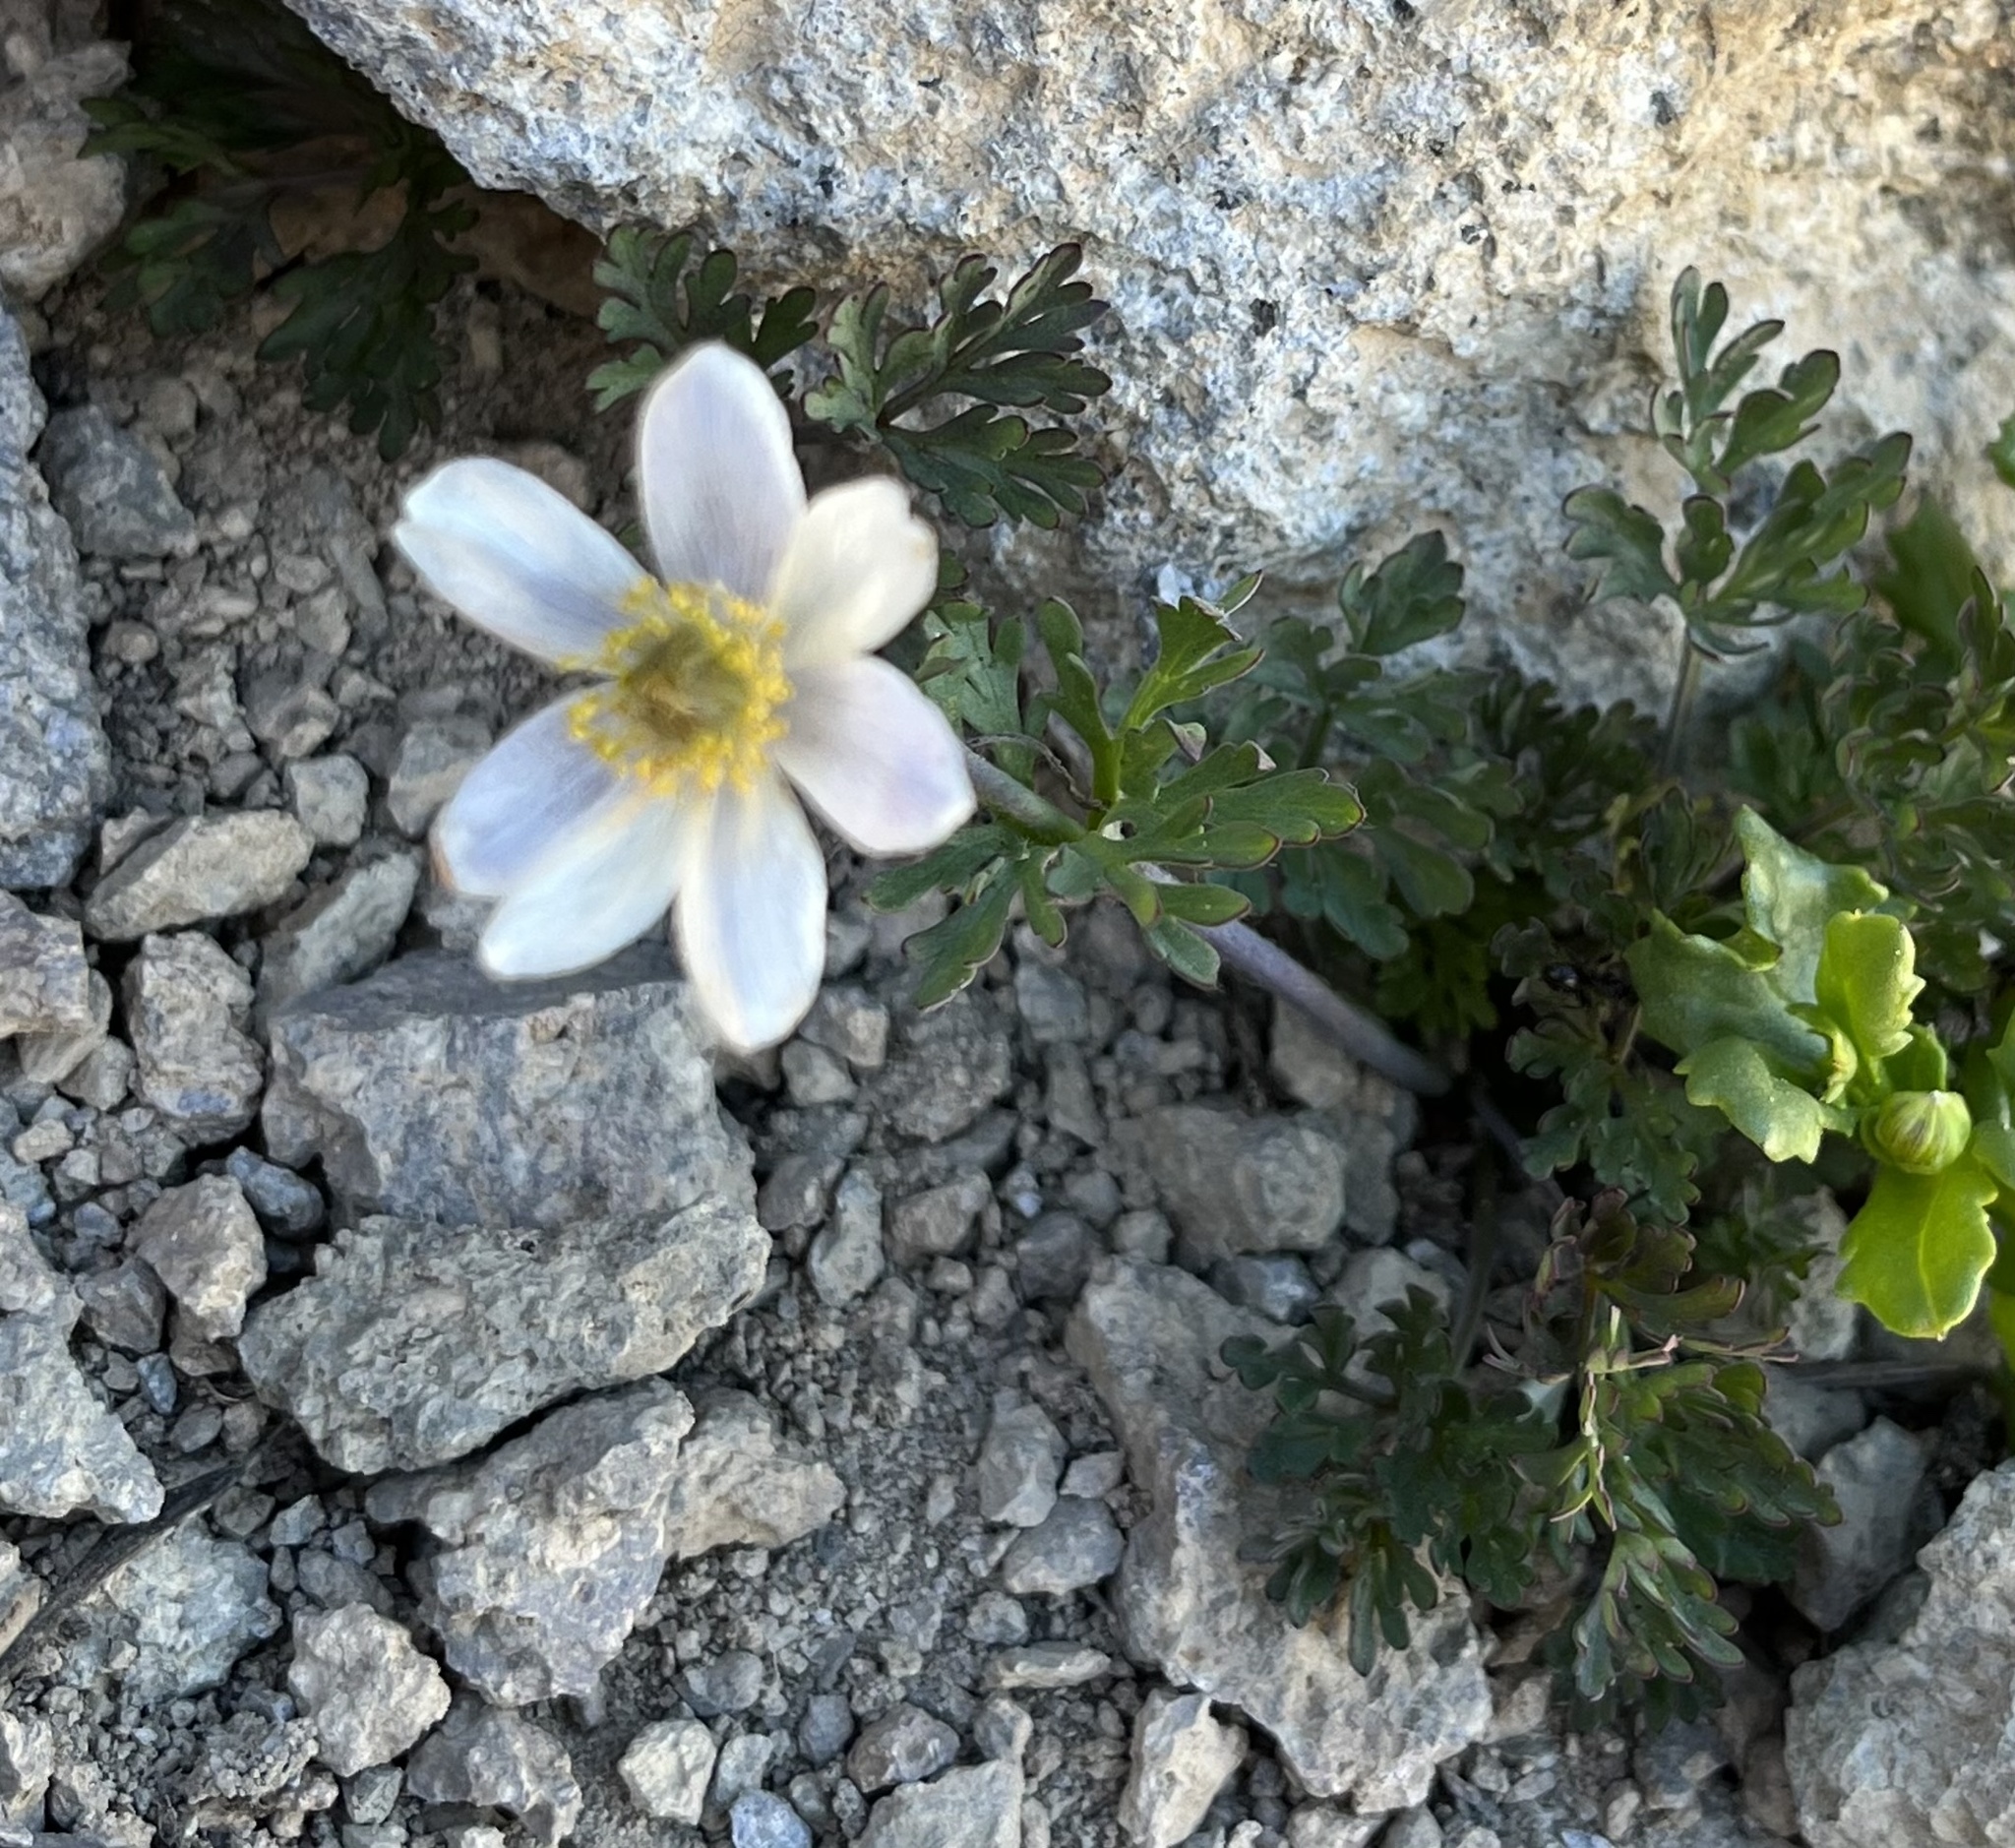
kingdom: Plantae
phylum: Tracheophyta
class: Magnoliopsida
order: Ranunculales
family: Ranunculaceae
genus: Anemone
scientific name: Anemone drummondii
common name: Drummond's anemone
